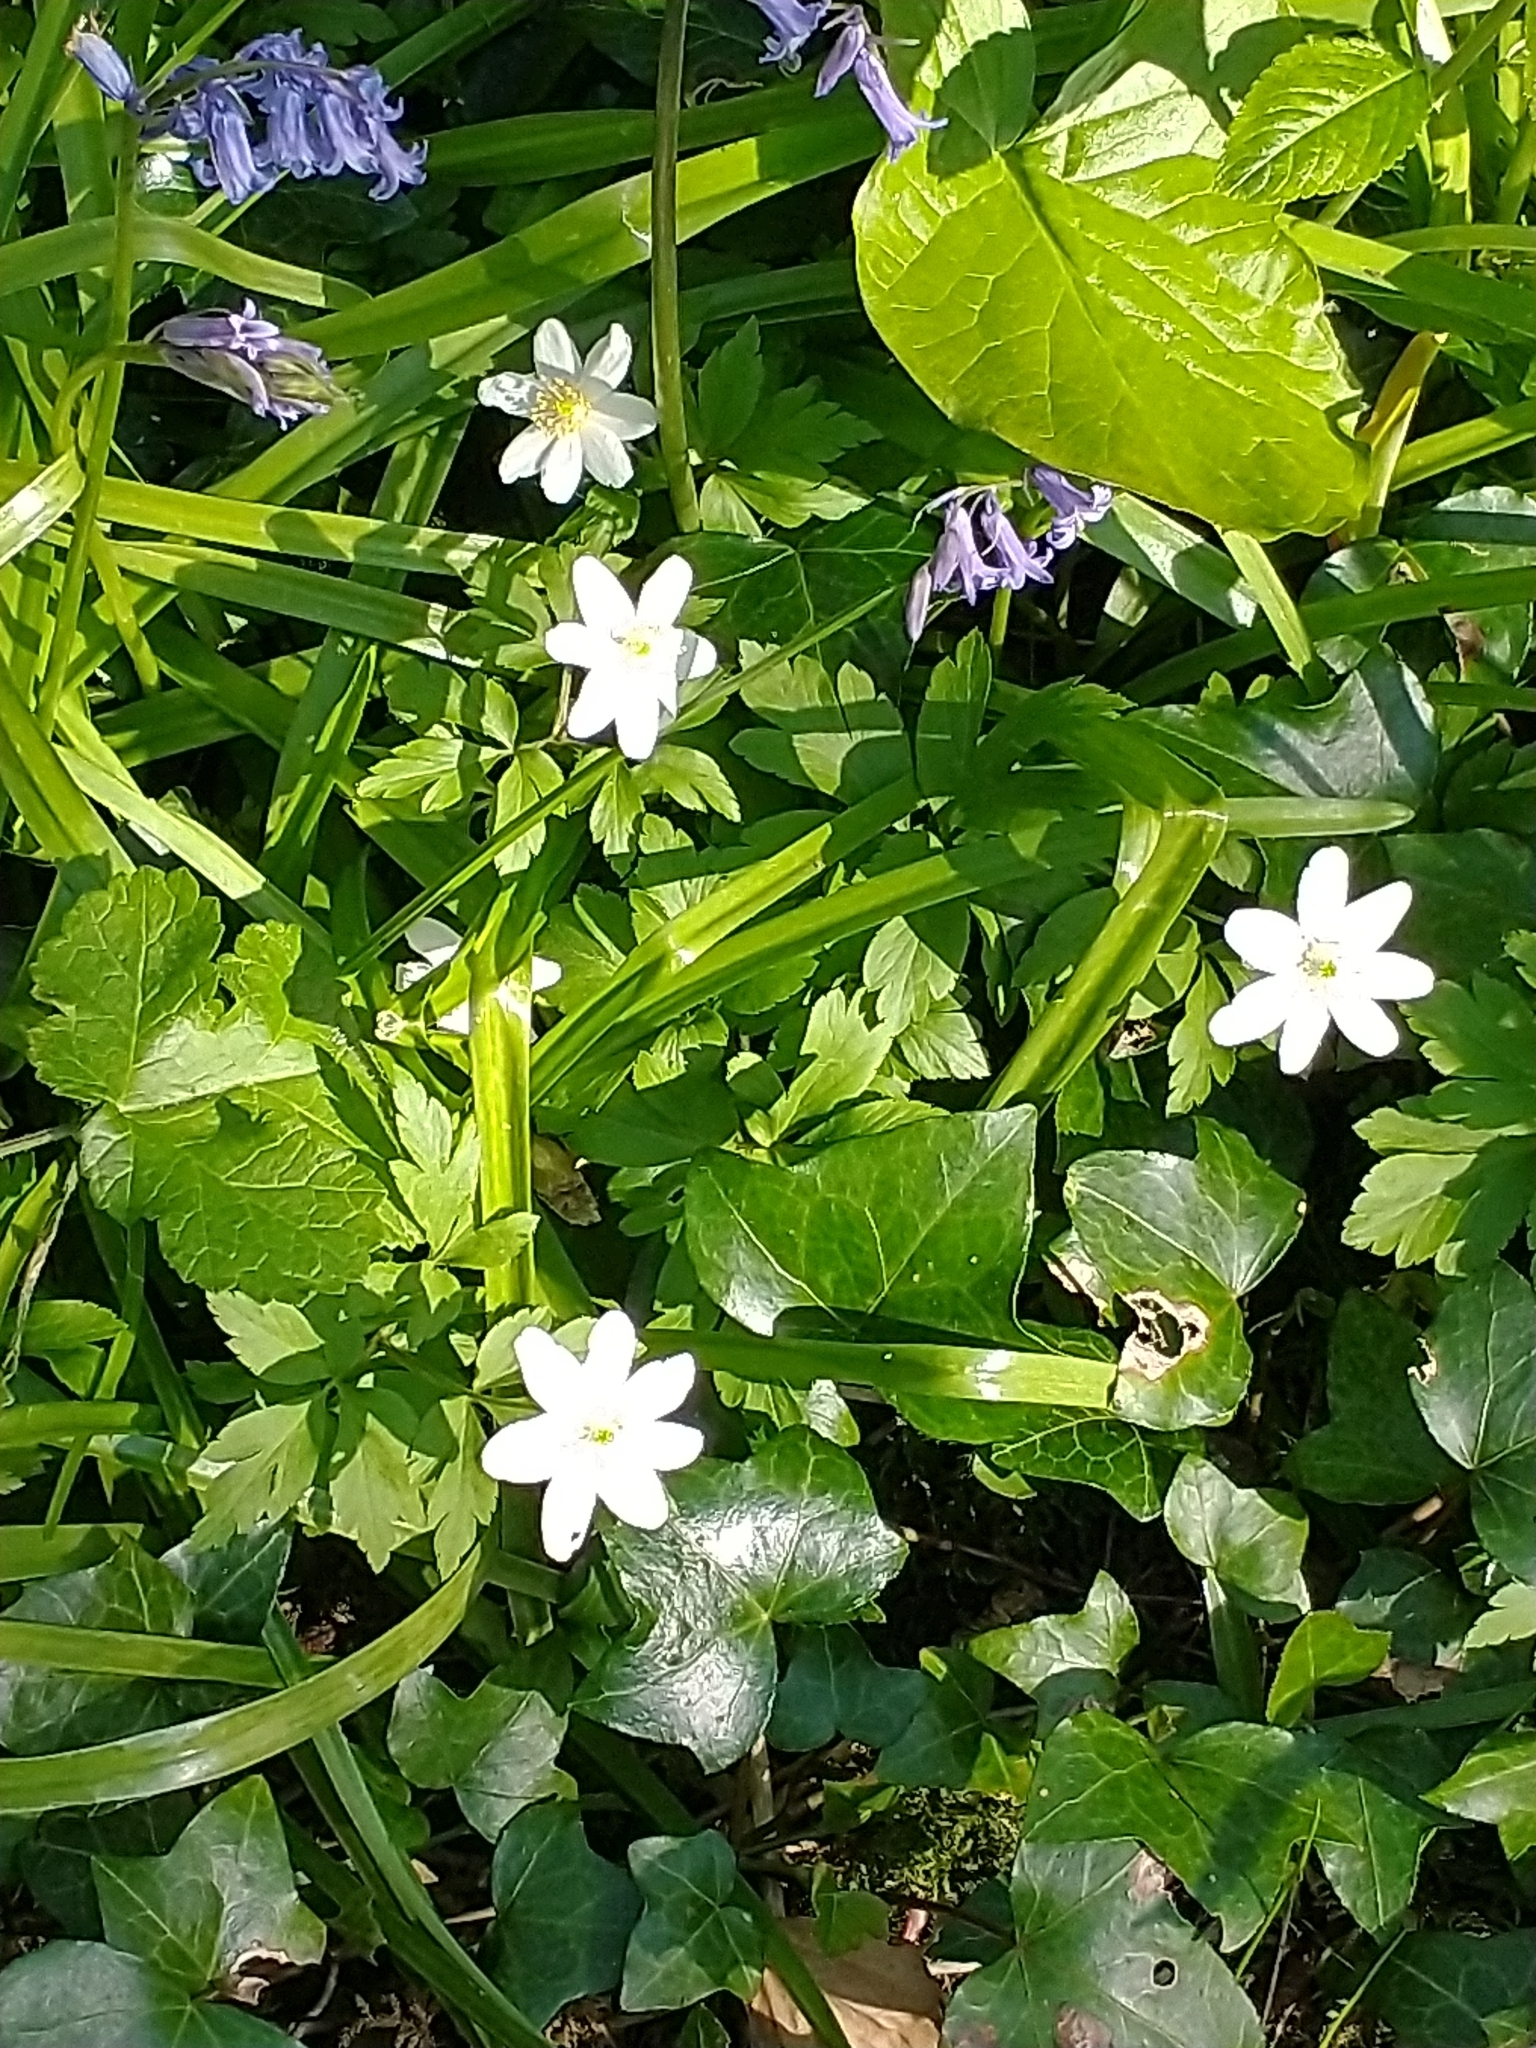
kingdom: Plantae
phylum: Tracheophyta
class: Magnoliopsida
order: Ranunculales
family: Ranunculaceae
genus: Anemone
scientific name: Anemone nemorosa
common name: Wood anemone
